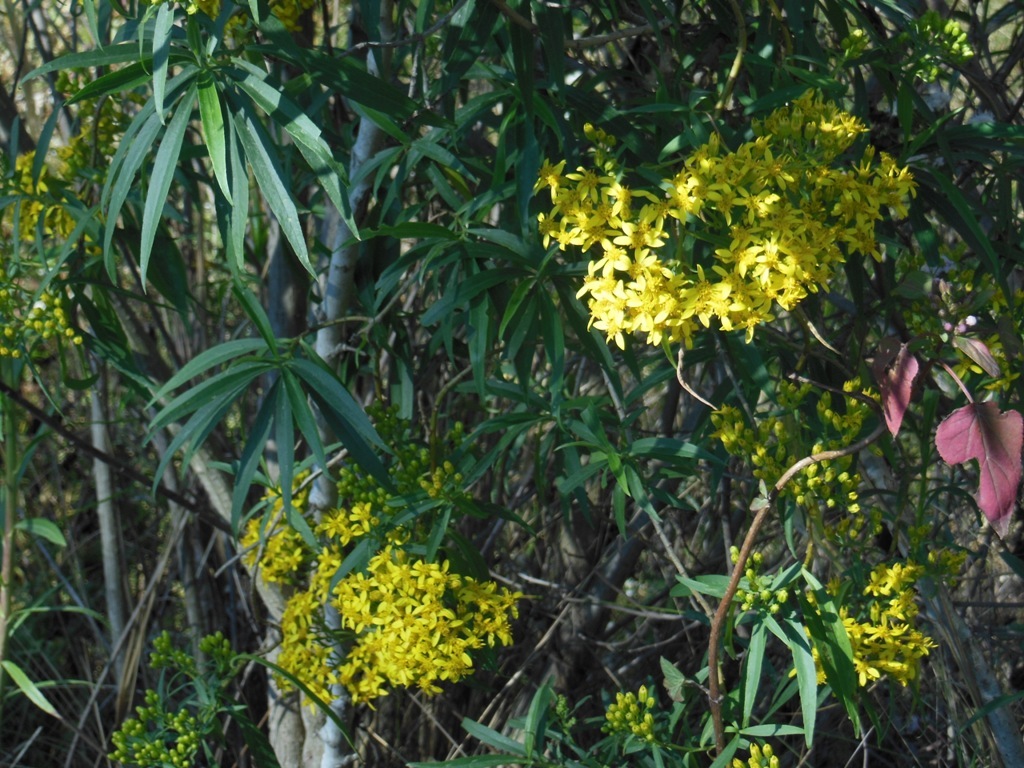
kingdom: Plantae
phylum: Tracheophyta
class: Magnoliopsida
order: Asterales
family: Asteraceae
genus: Barkleyanthus
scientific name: Barkleyanthus salicifolius
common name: Willow ragwort
